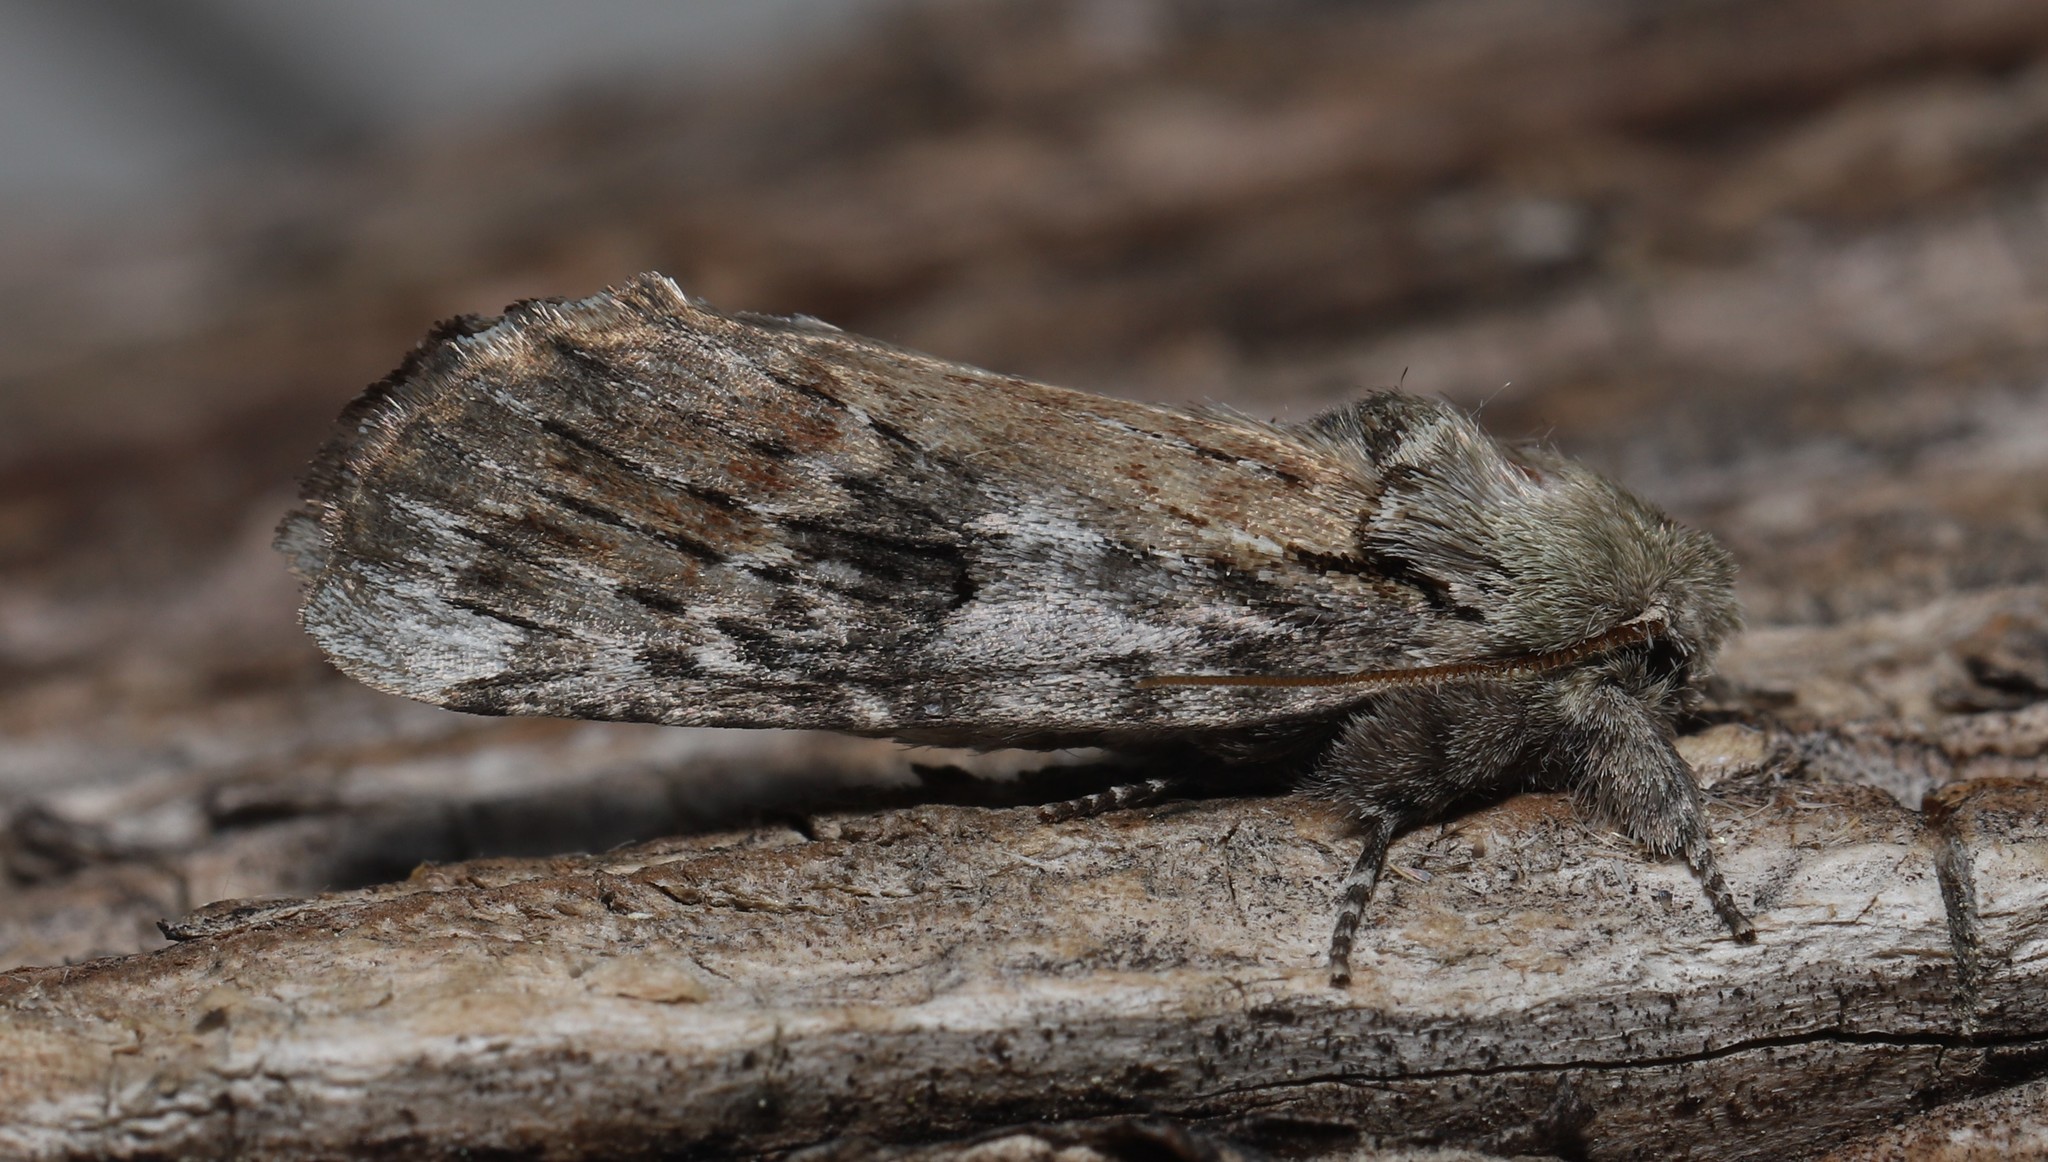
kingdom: Animalia
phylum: Arthropoda
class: Insecta
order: Lepidoptera
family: Notodontidae
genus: Schizura
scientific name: Schizura
